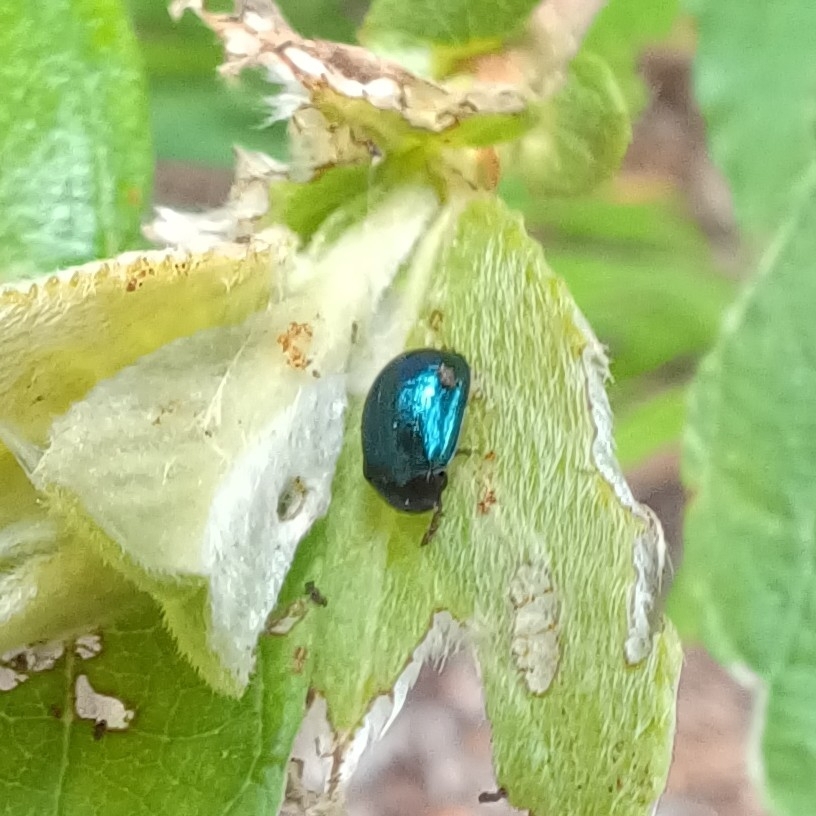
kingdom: Animalia
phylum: Arthropoda
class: Insecta
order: Coleoptera
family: Chrysomelidae
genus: Plagiodera
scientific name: Plagiodera versicolora
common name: Imported willow leaf beetle
